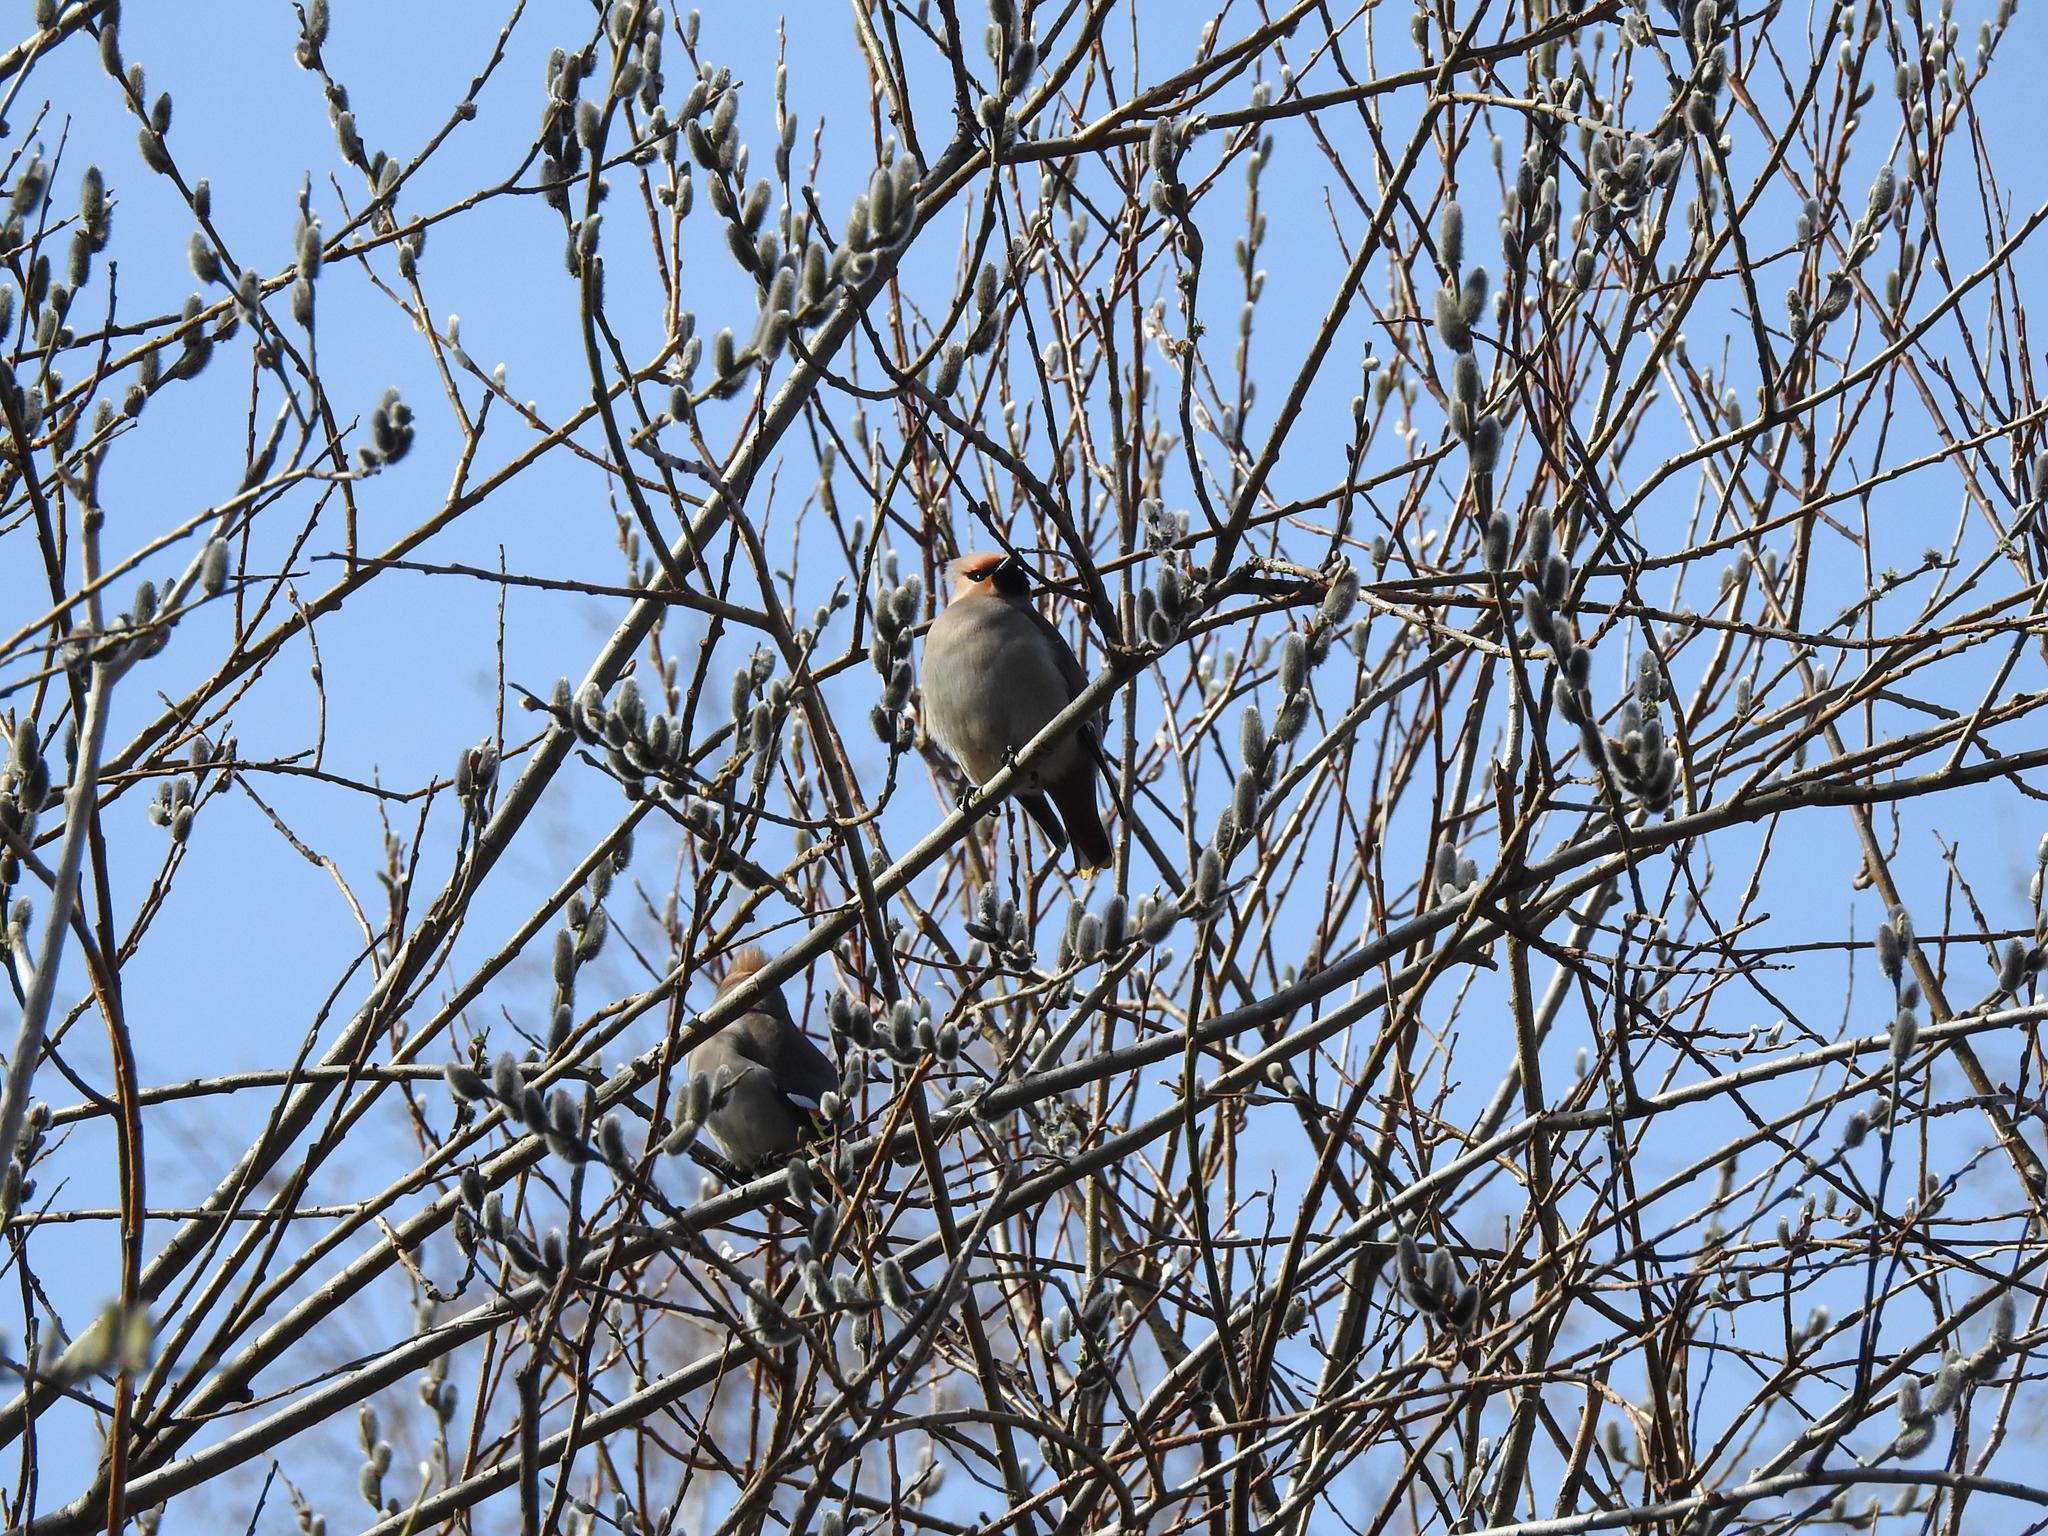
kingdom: Animalia
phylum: Chordata
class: Aves
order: Passeriformes
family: Bombycillidae
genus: Bombycilla
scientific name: Bombycilla garrulus
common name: Bohemian waxwing
